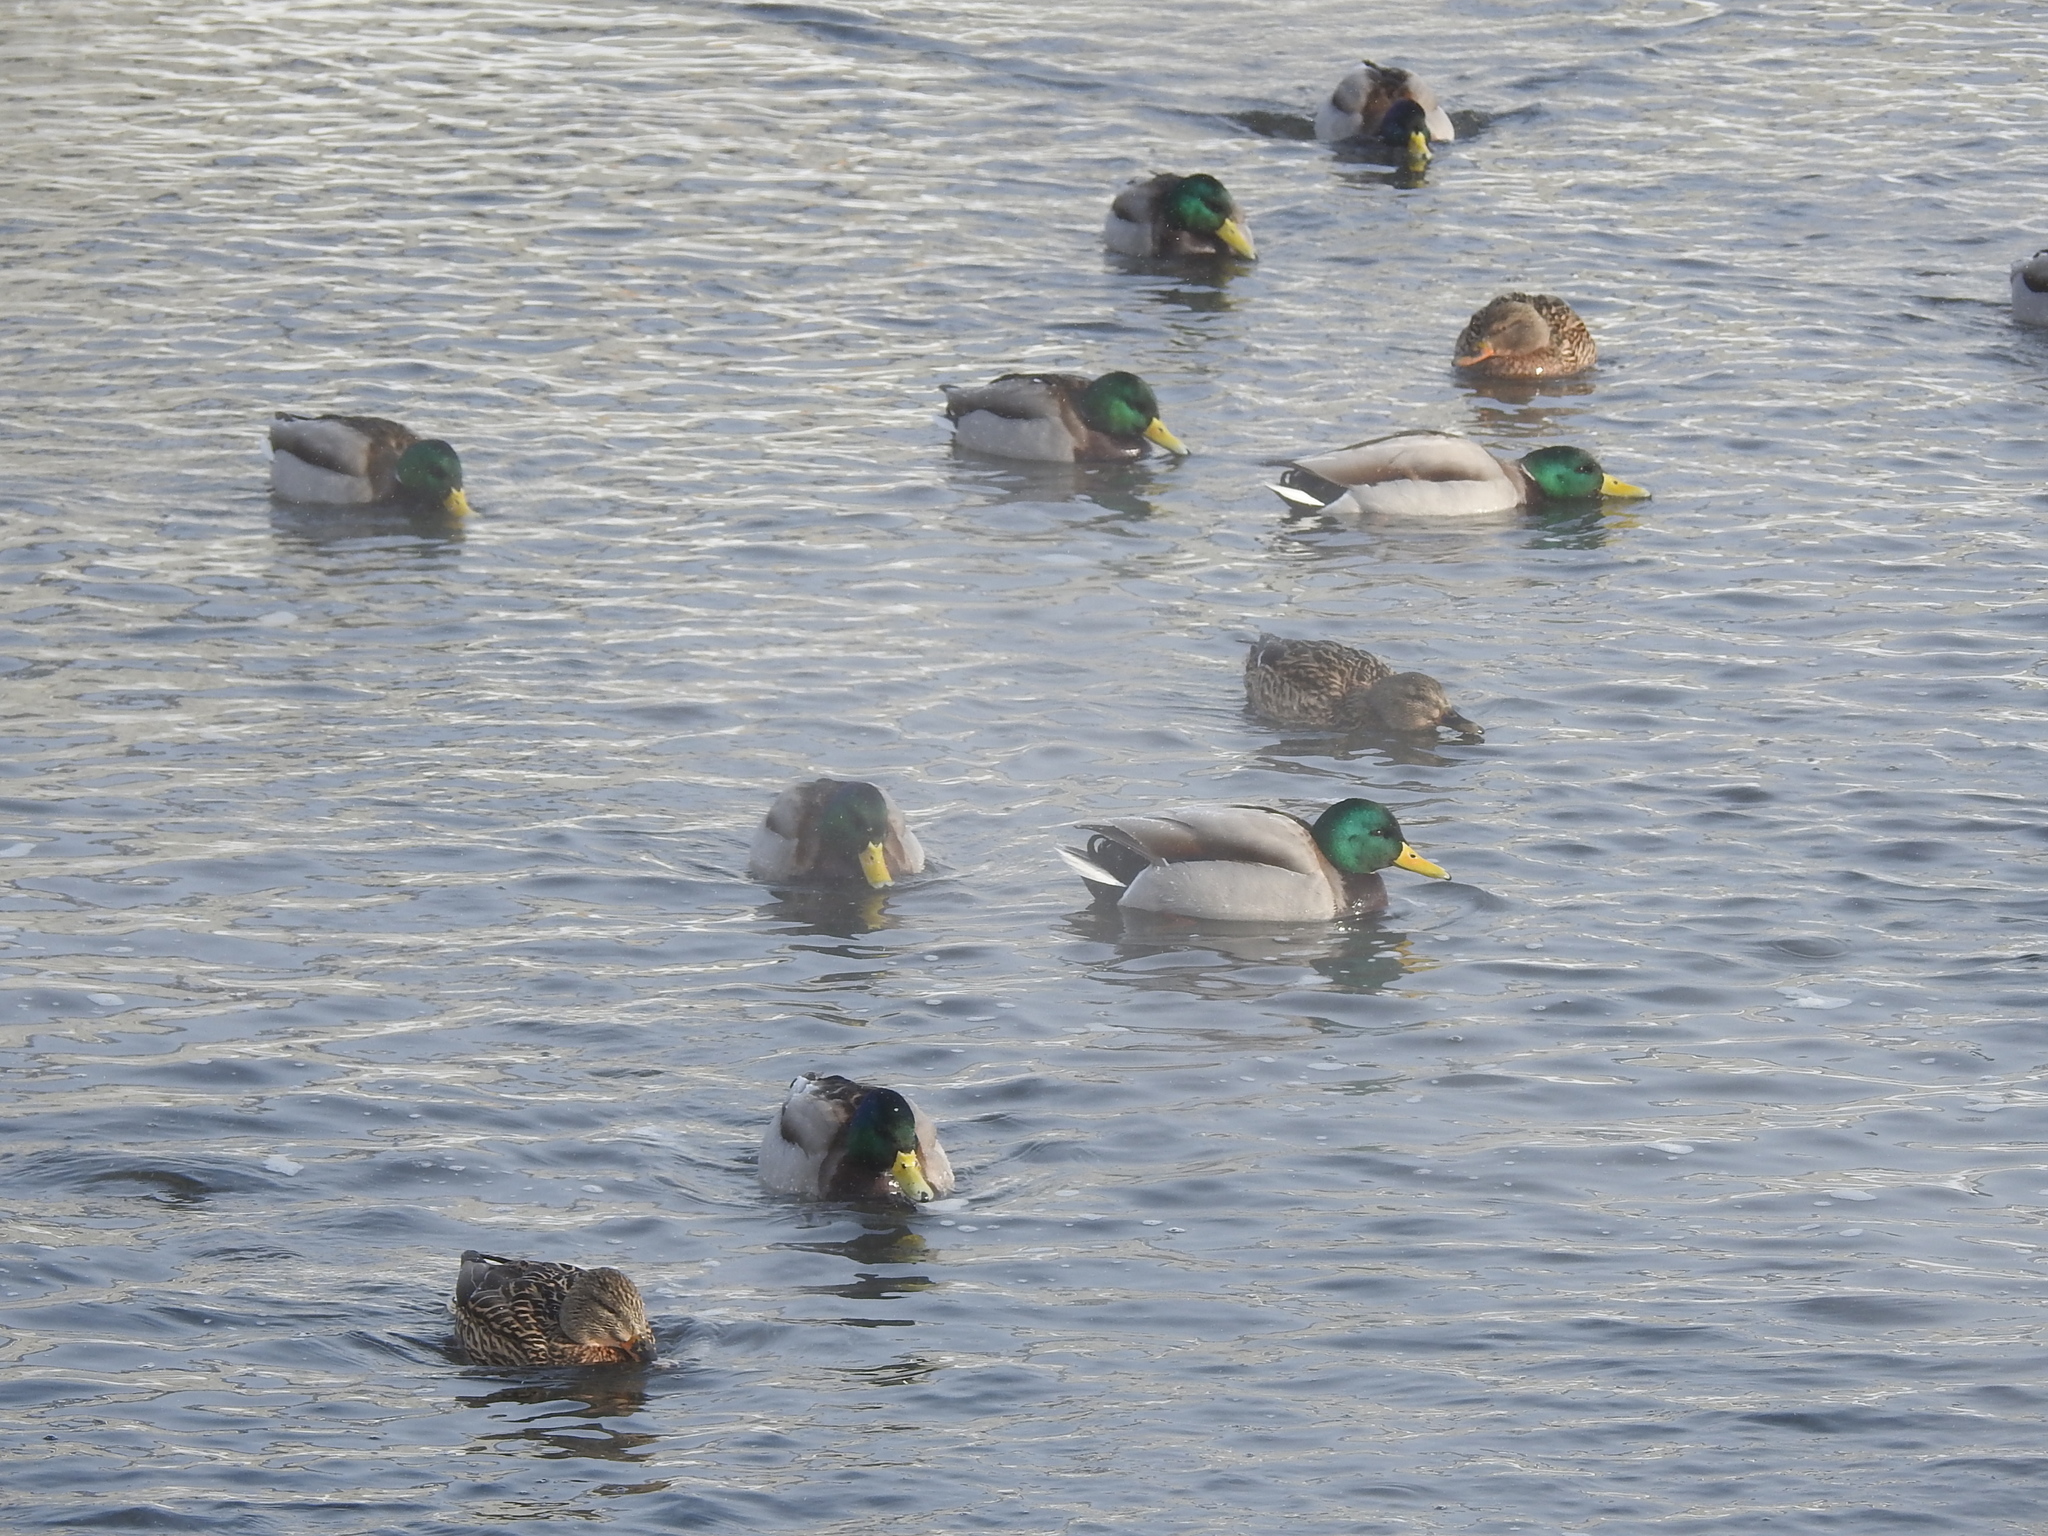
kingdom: Animalia
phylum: Chordata
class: Aves
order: Anseriformes
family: Anatidae
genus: Anas
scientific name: Anas platyrhynchos
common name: Mallard
